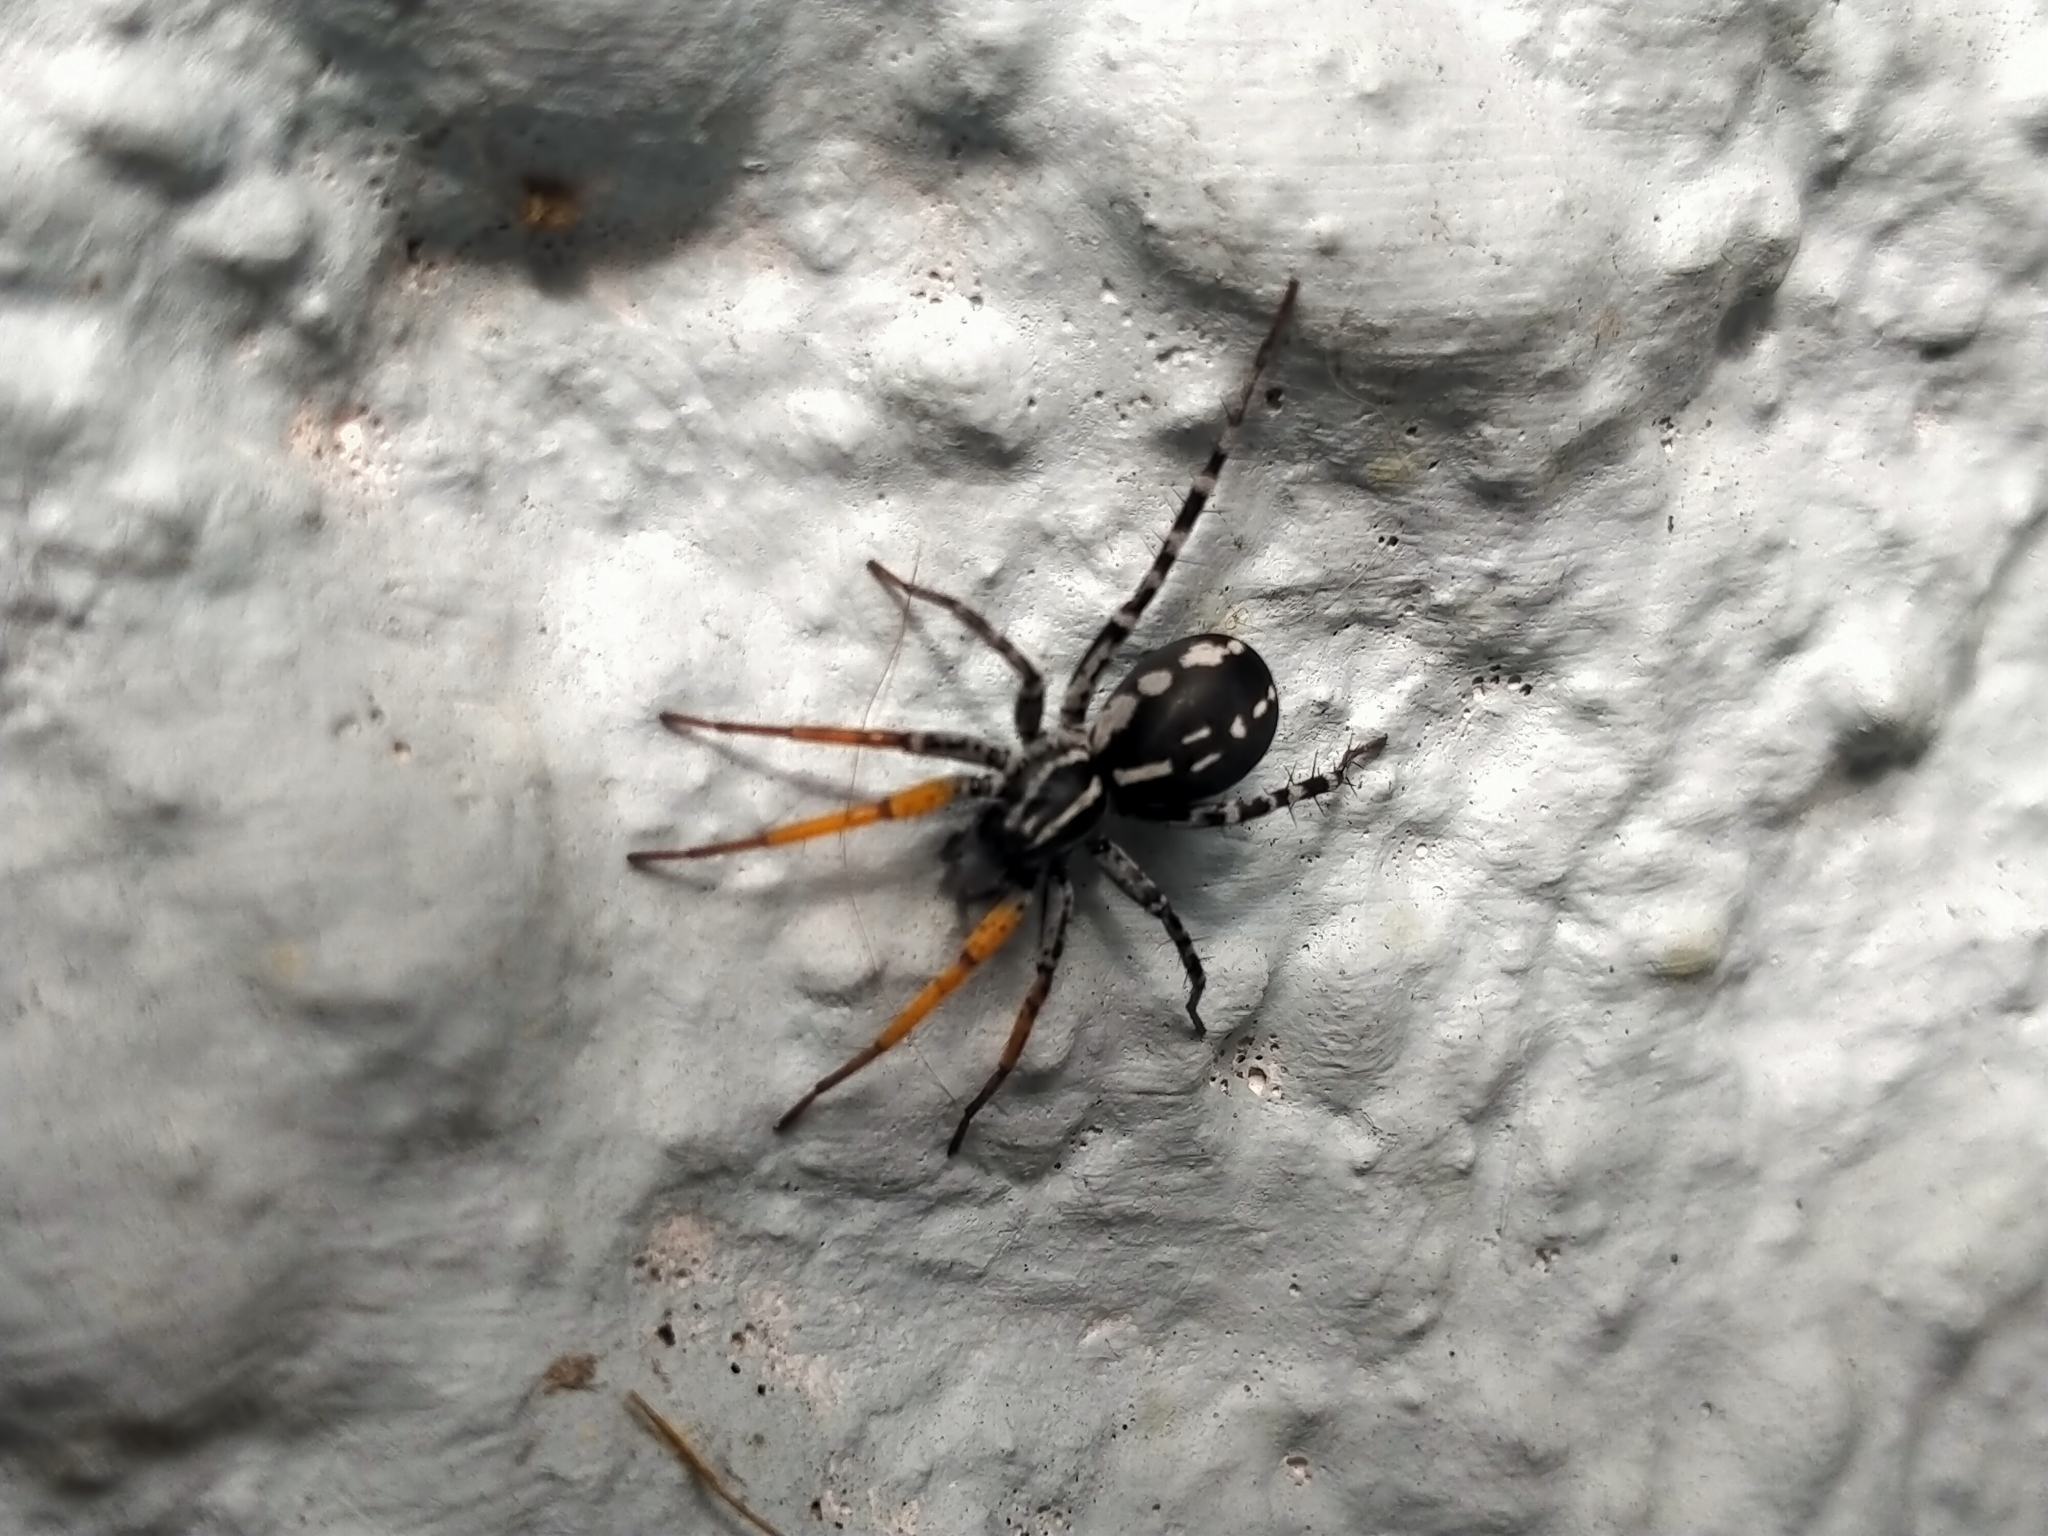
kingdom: Animalia
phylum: Arthropoda
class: Arachnida
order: Araneae
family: Corinnidae
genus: Nyssus
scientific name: Nyssus coloripes
